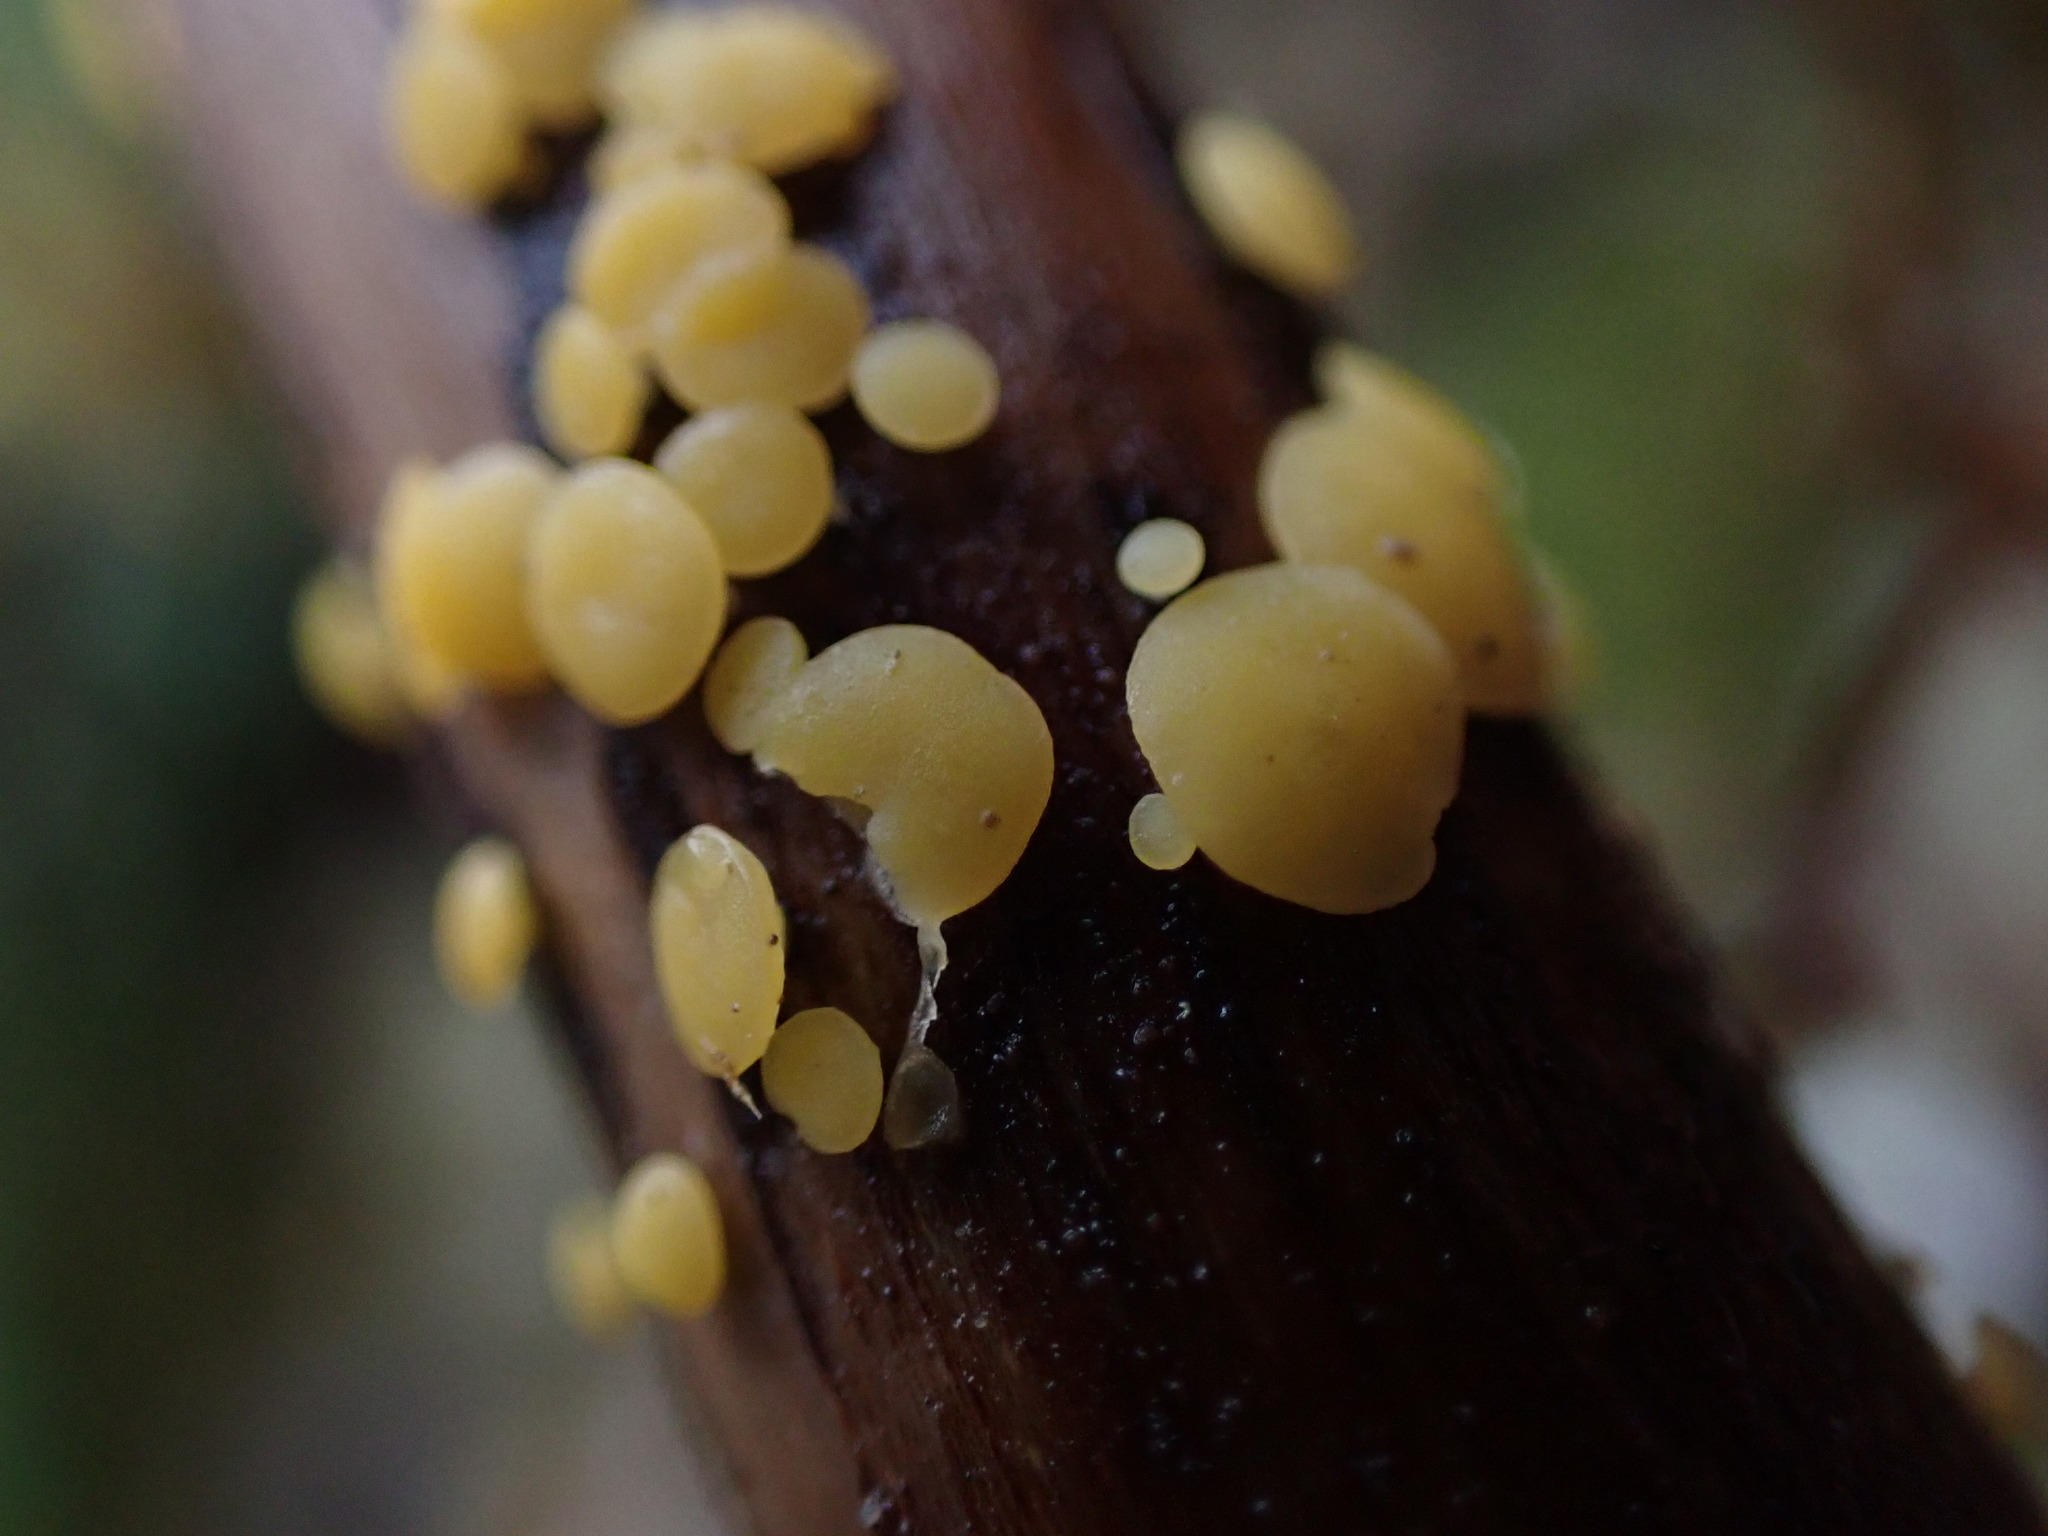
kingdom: Fungi
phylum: Ascomycota
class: Leotiomycetes
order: Helotiales
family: Pezizellaceae
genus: Calycina
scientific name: Calycina citrina
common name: Yellow fairy cups
